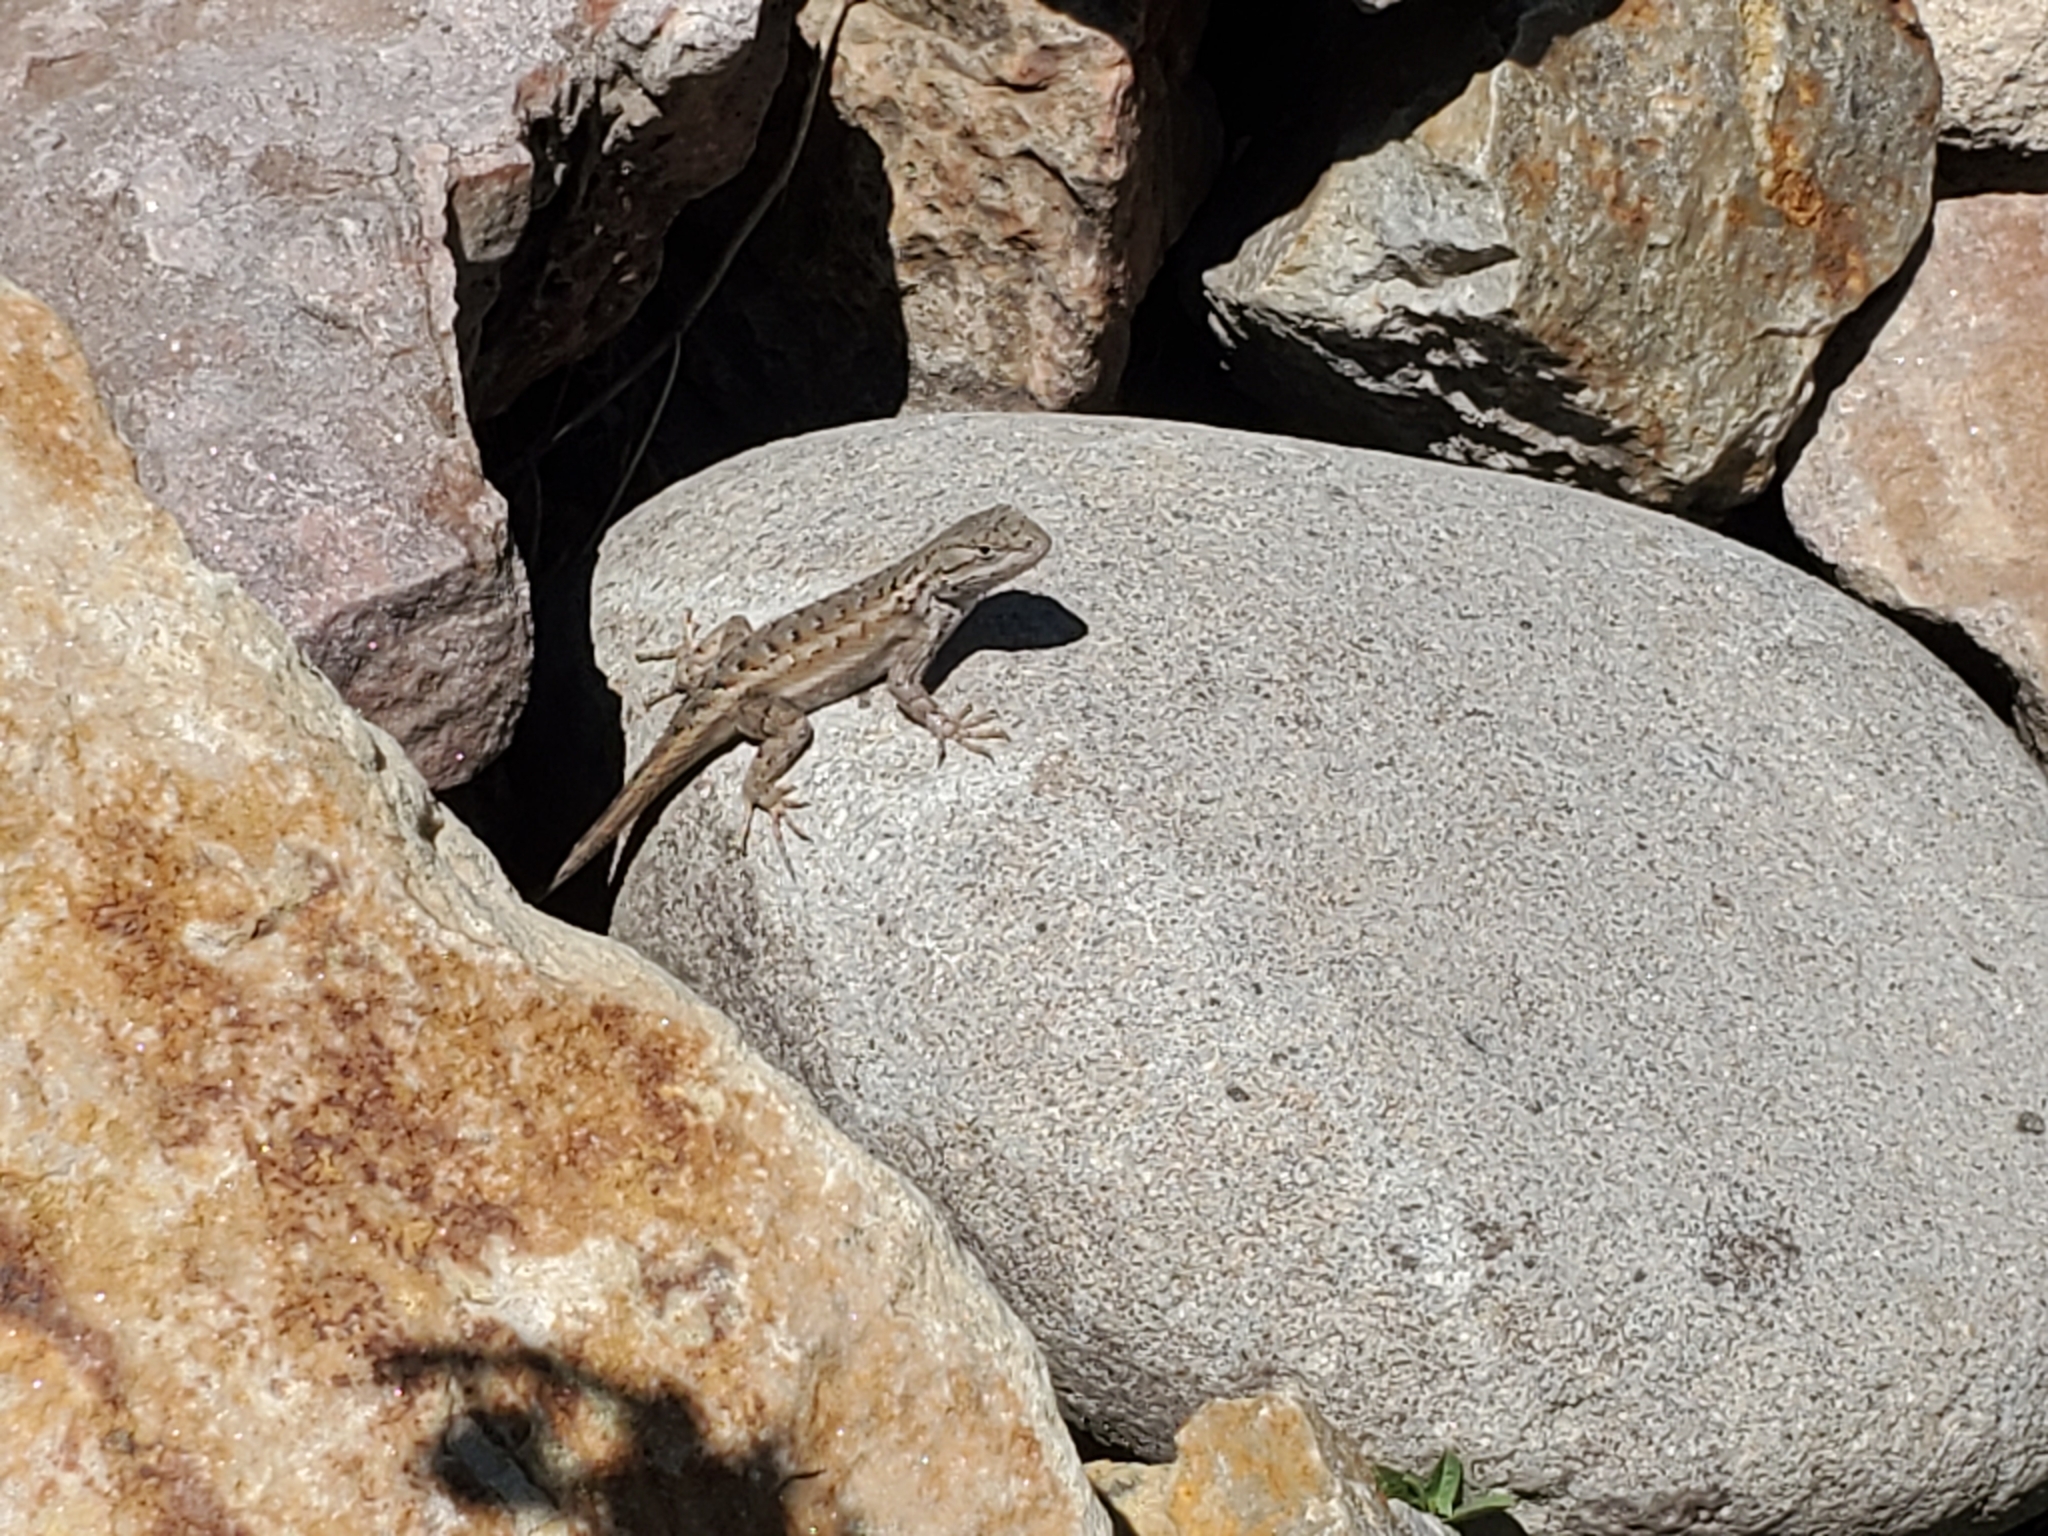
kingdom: Animalia
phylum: Chordata
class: Squamata
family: Phrynosomatidae
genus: Sceloporus
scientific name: Sceloporus tristichus
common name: Plateau fence lizard
